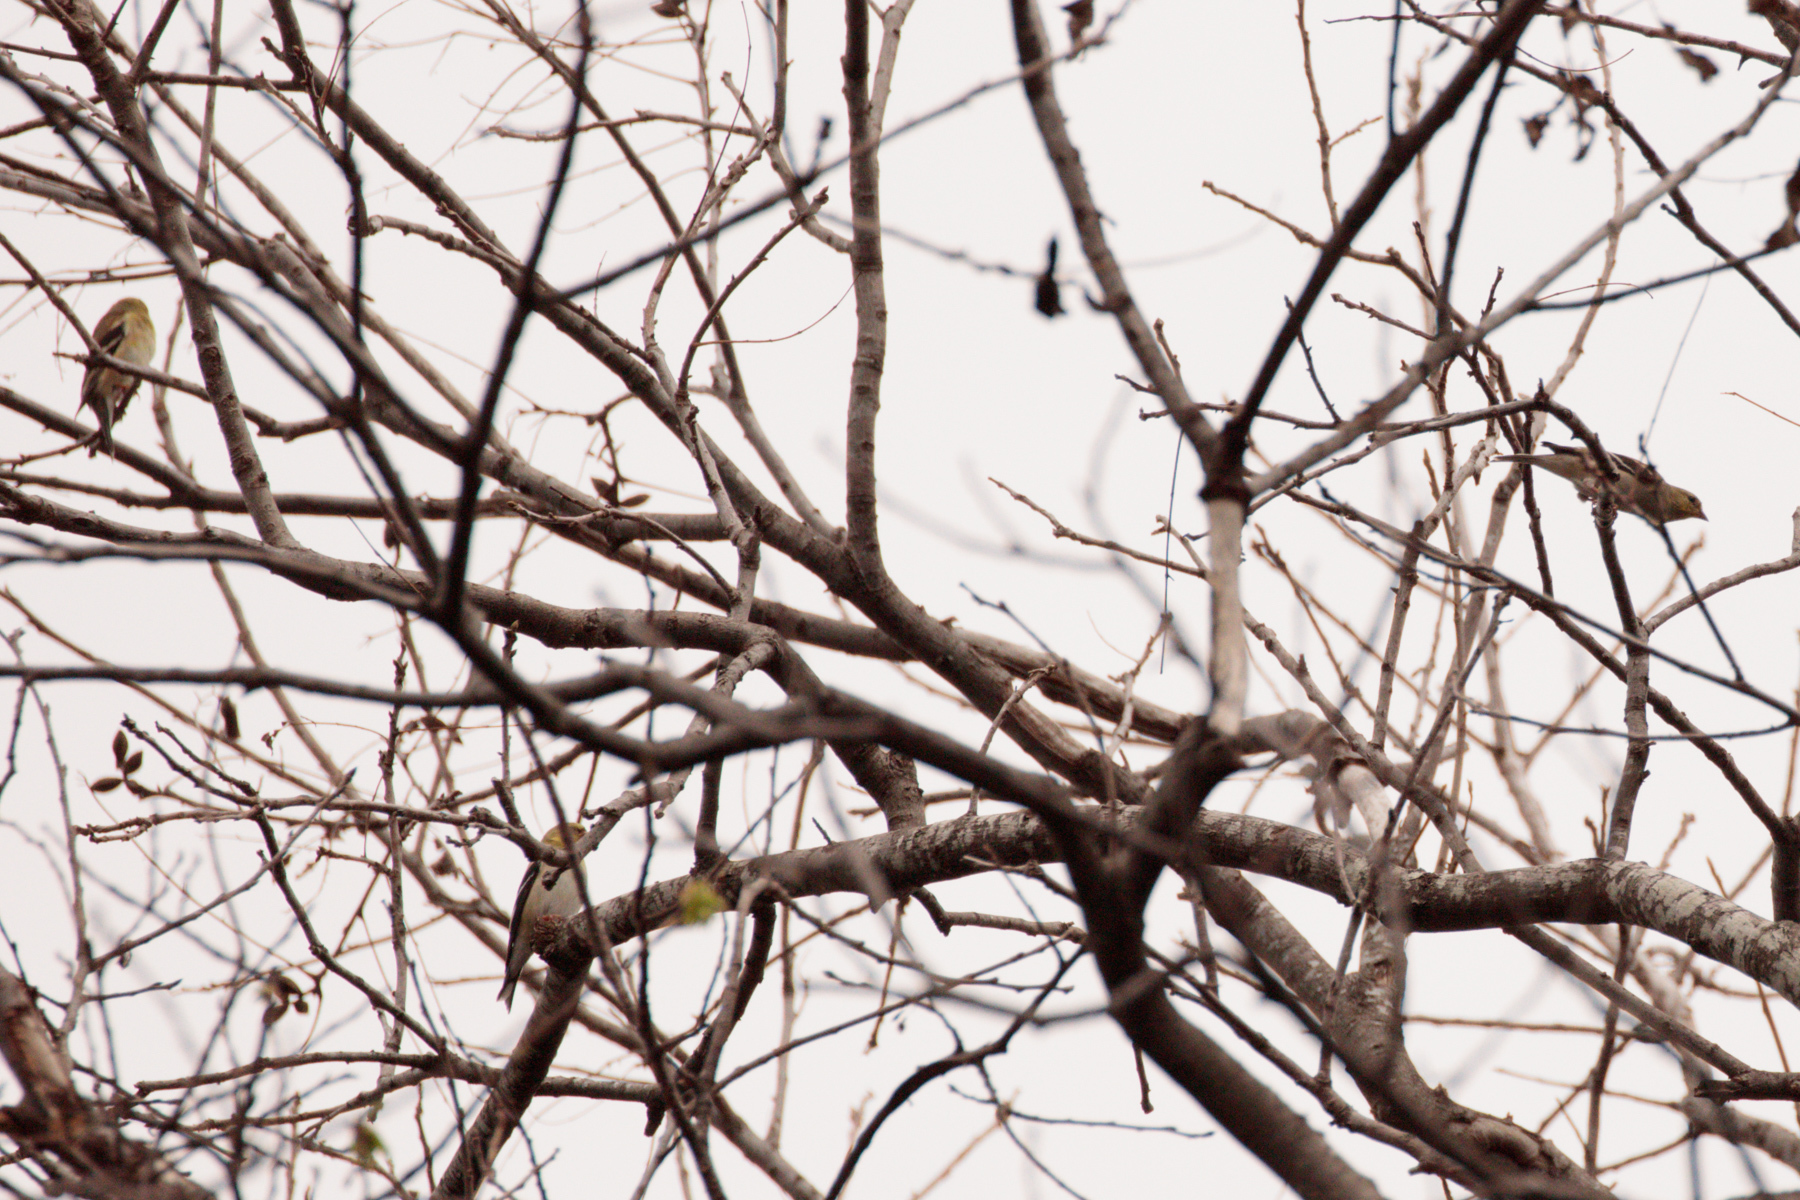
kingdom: Animalia
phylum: Chordata
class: Aves
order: Passeriformes
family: Fringillidae
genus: Spinus
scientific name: Spinus tristis
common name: American goldfinch
